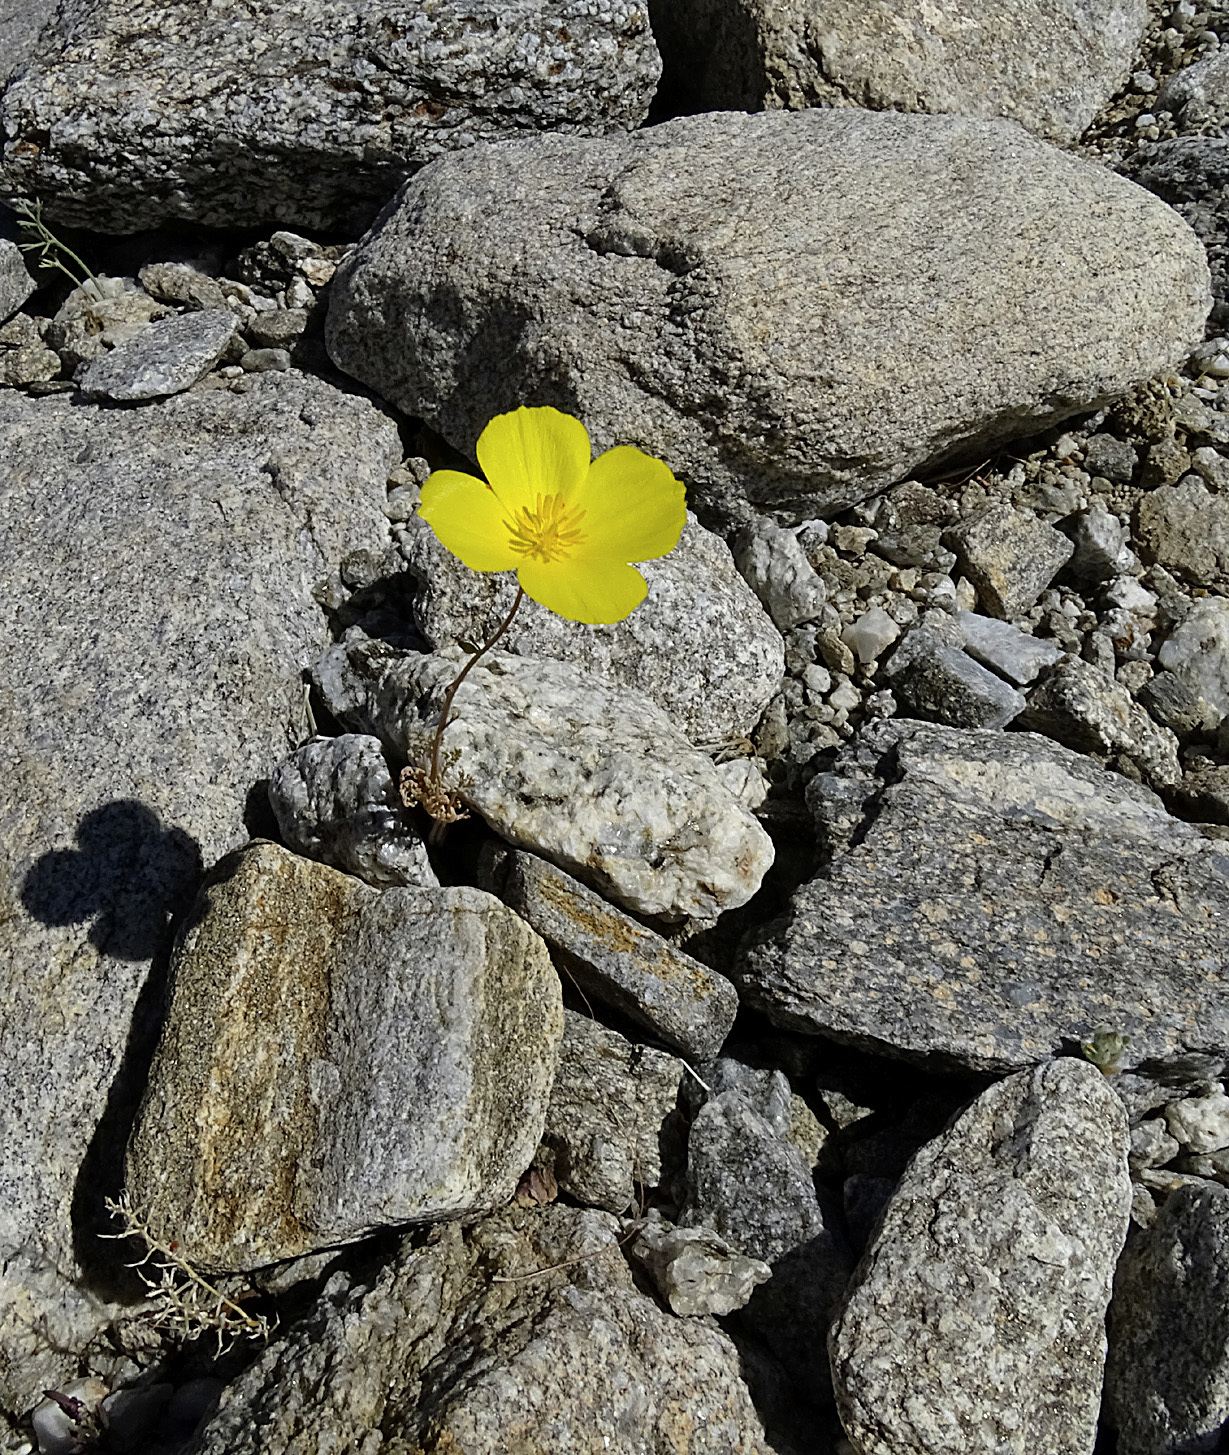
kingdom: Plantae
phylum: Tracheophyta
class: Magnoliopsida
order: Ranunculales
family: Papaveraceae
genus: Eschscholzia
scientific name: Eschscholzia parishii
